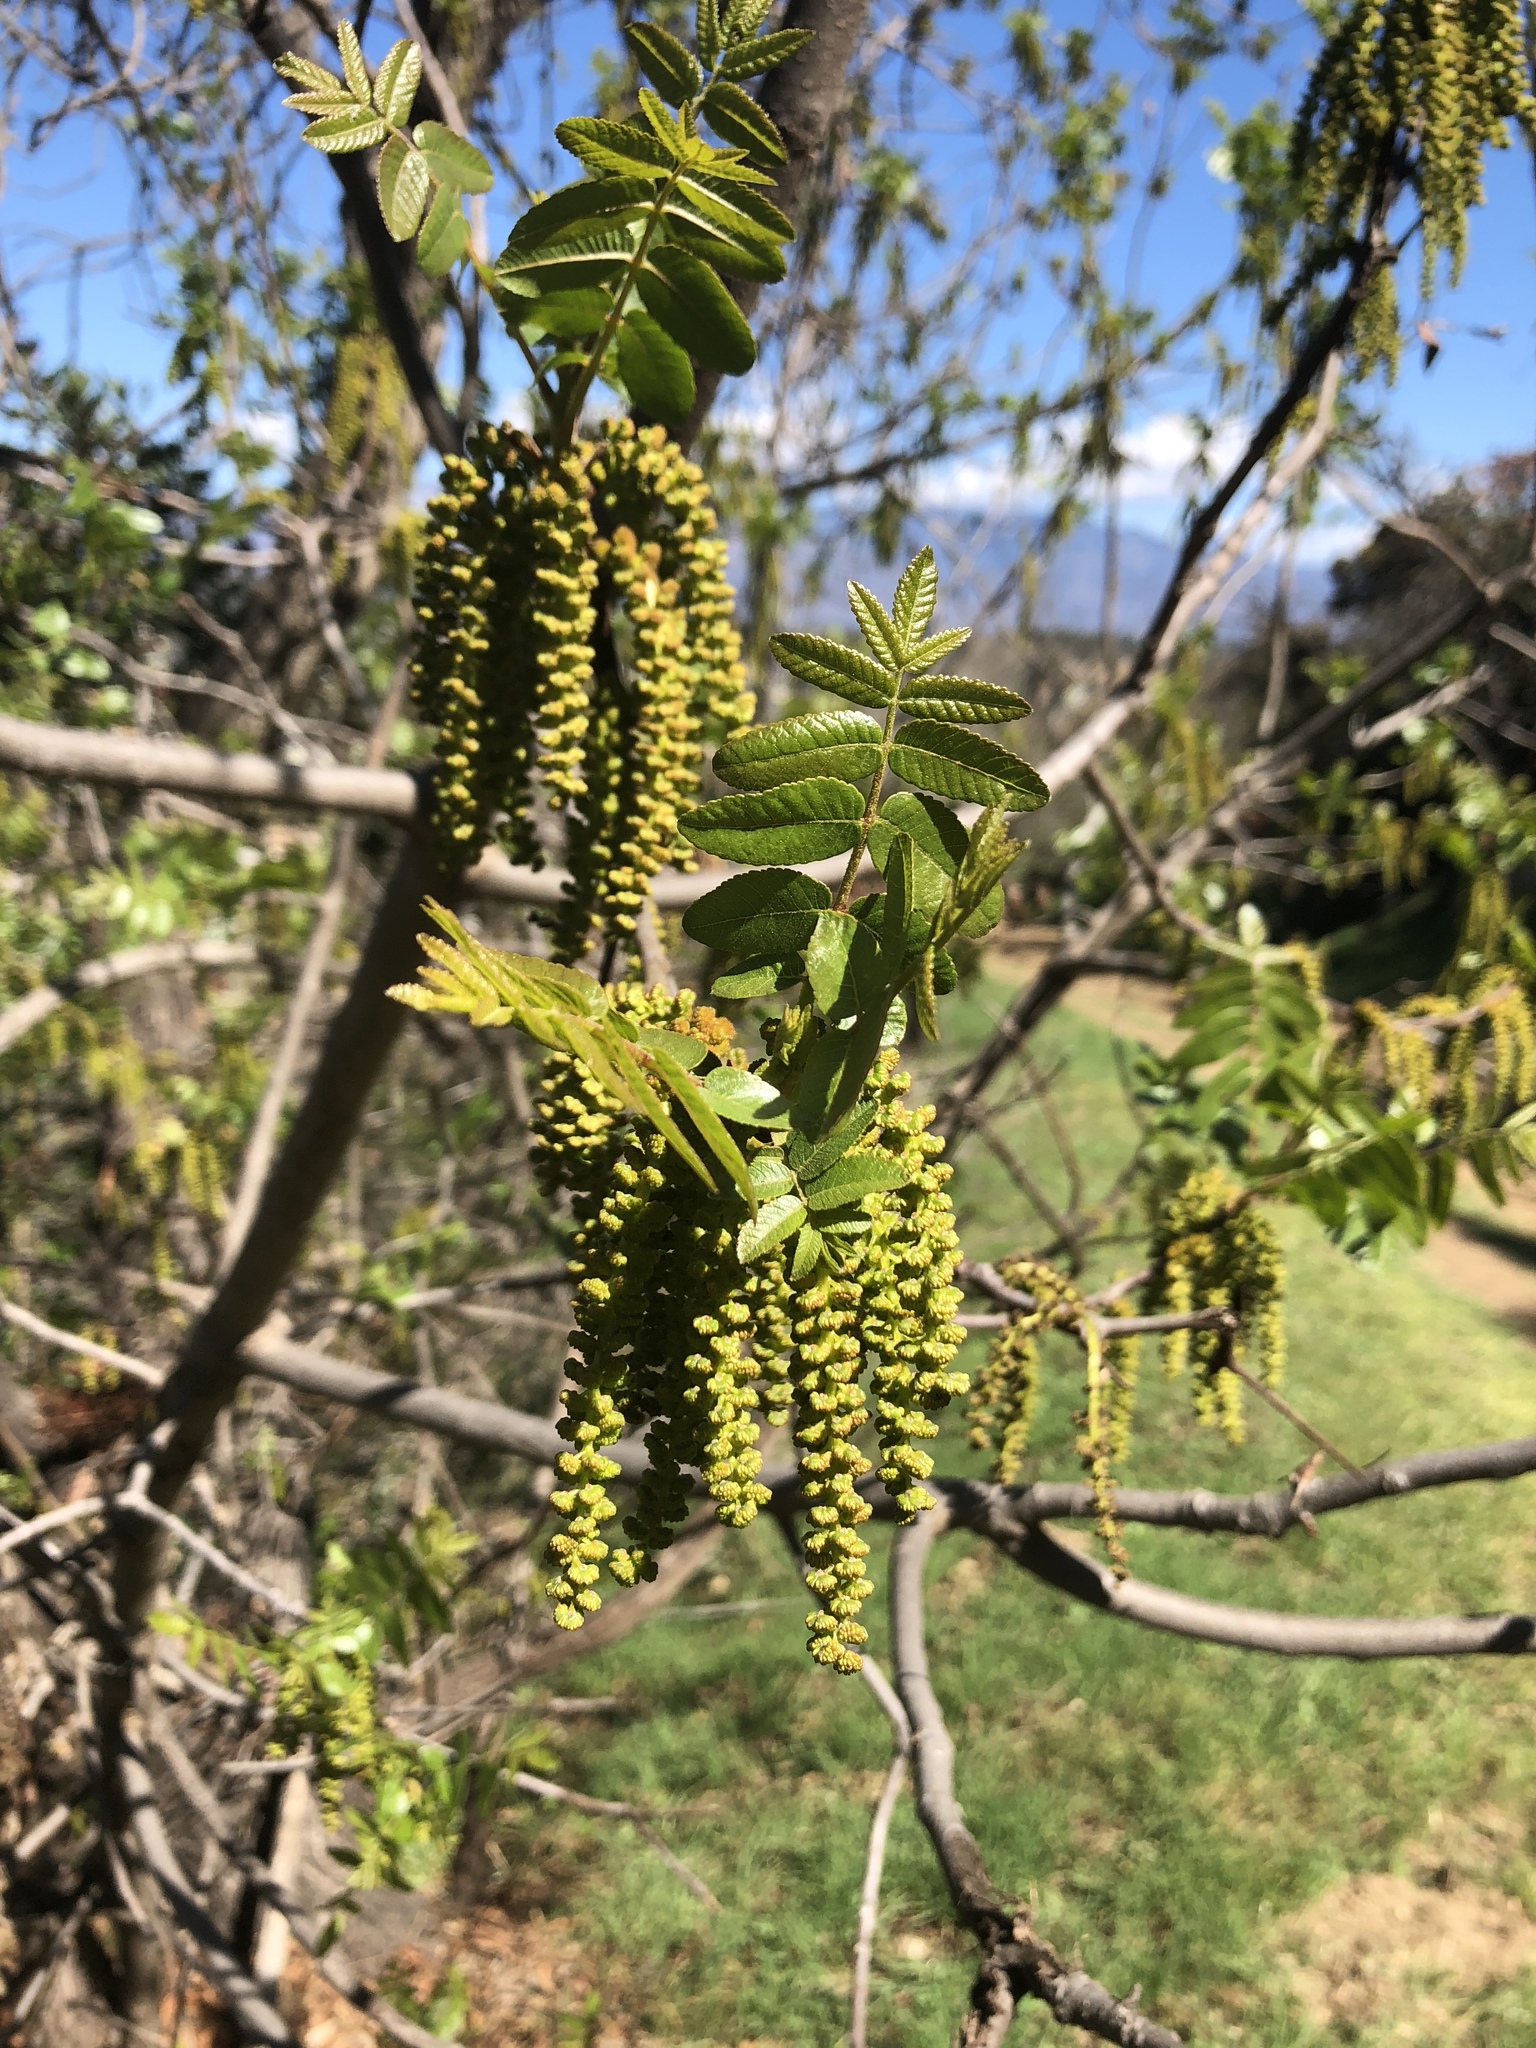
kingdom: Plantae
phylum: Tracheophyta
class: Magnoliopsida
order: Fagales
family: Juglandaceae
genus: Juglans
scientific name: Juglans californica
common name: Southern california black walnut
